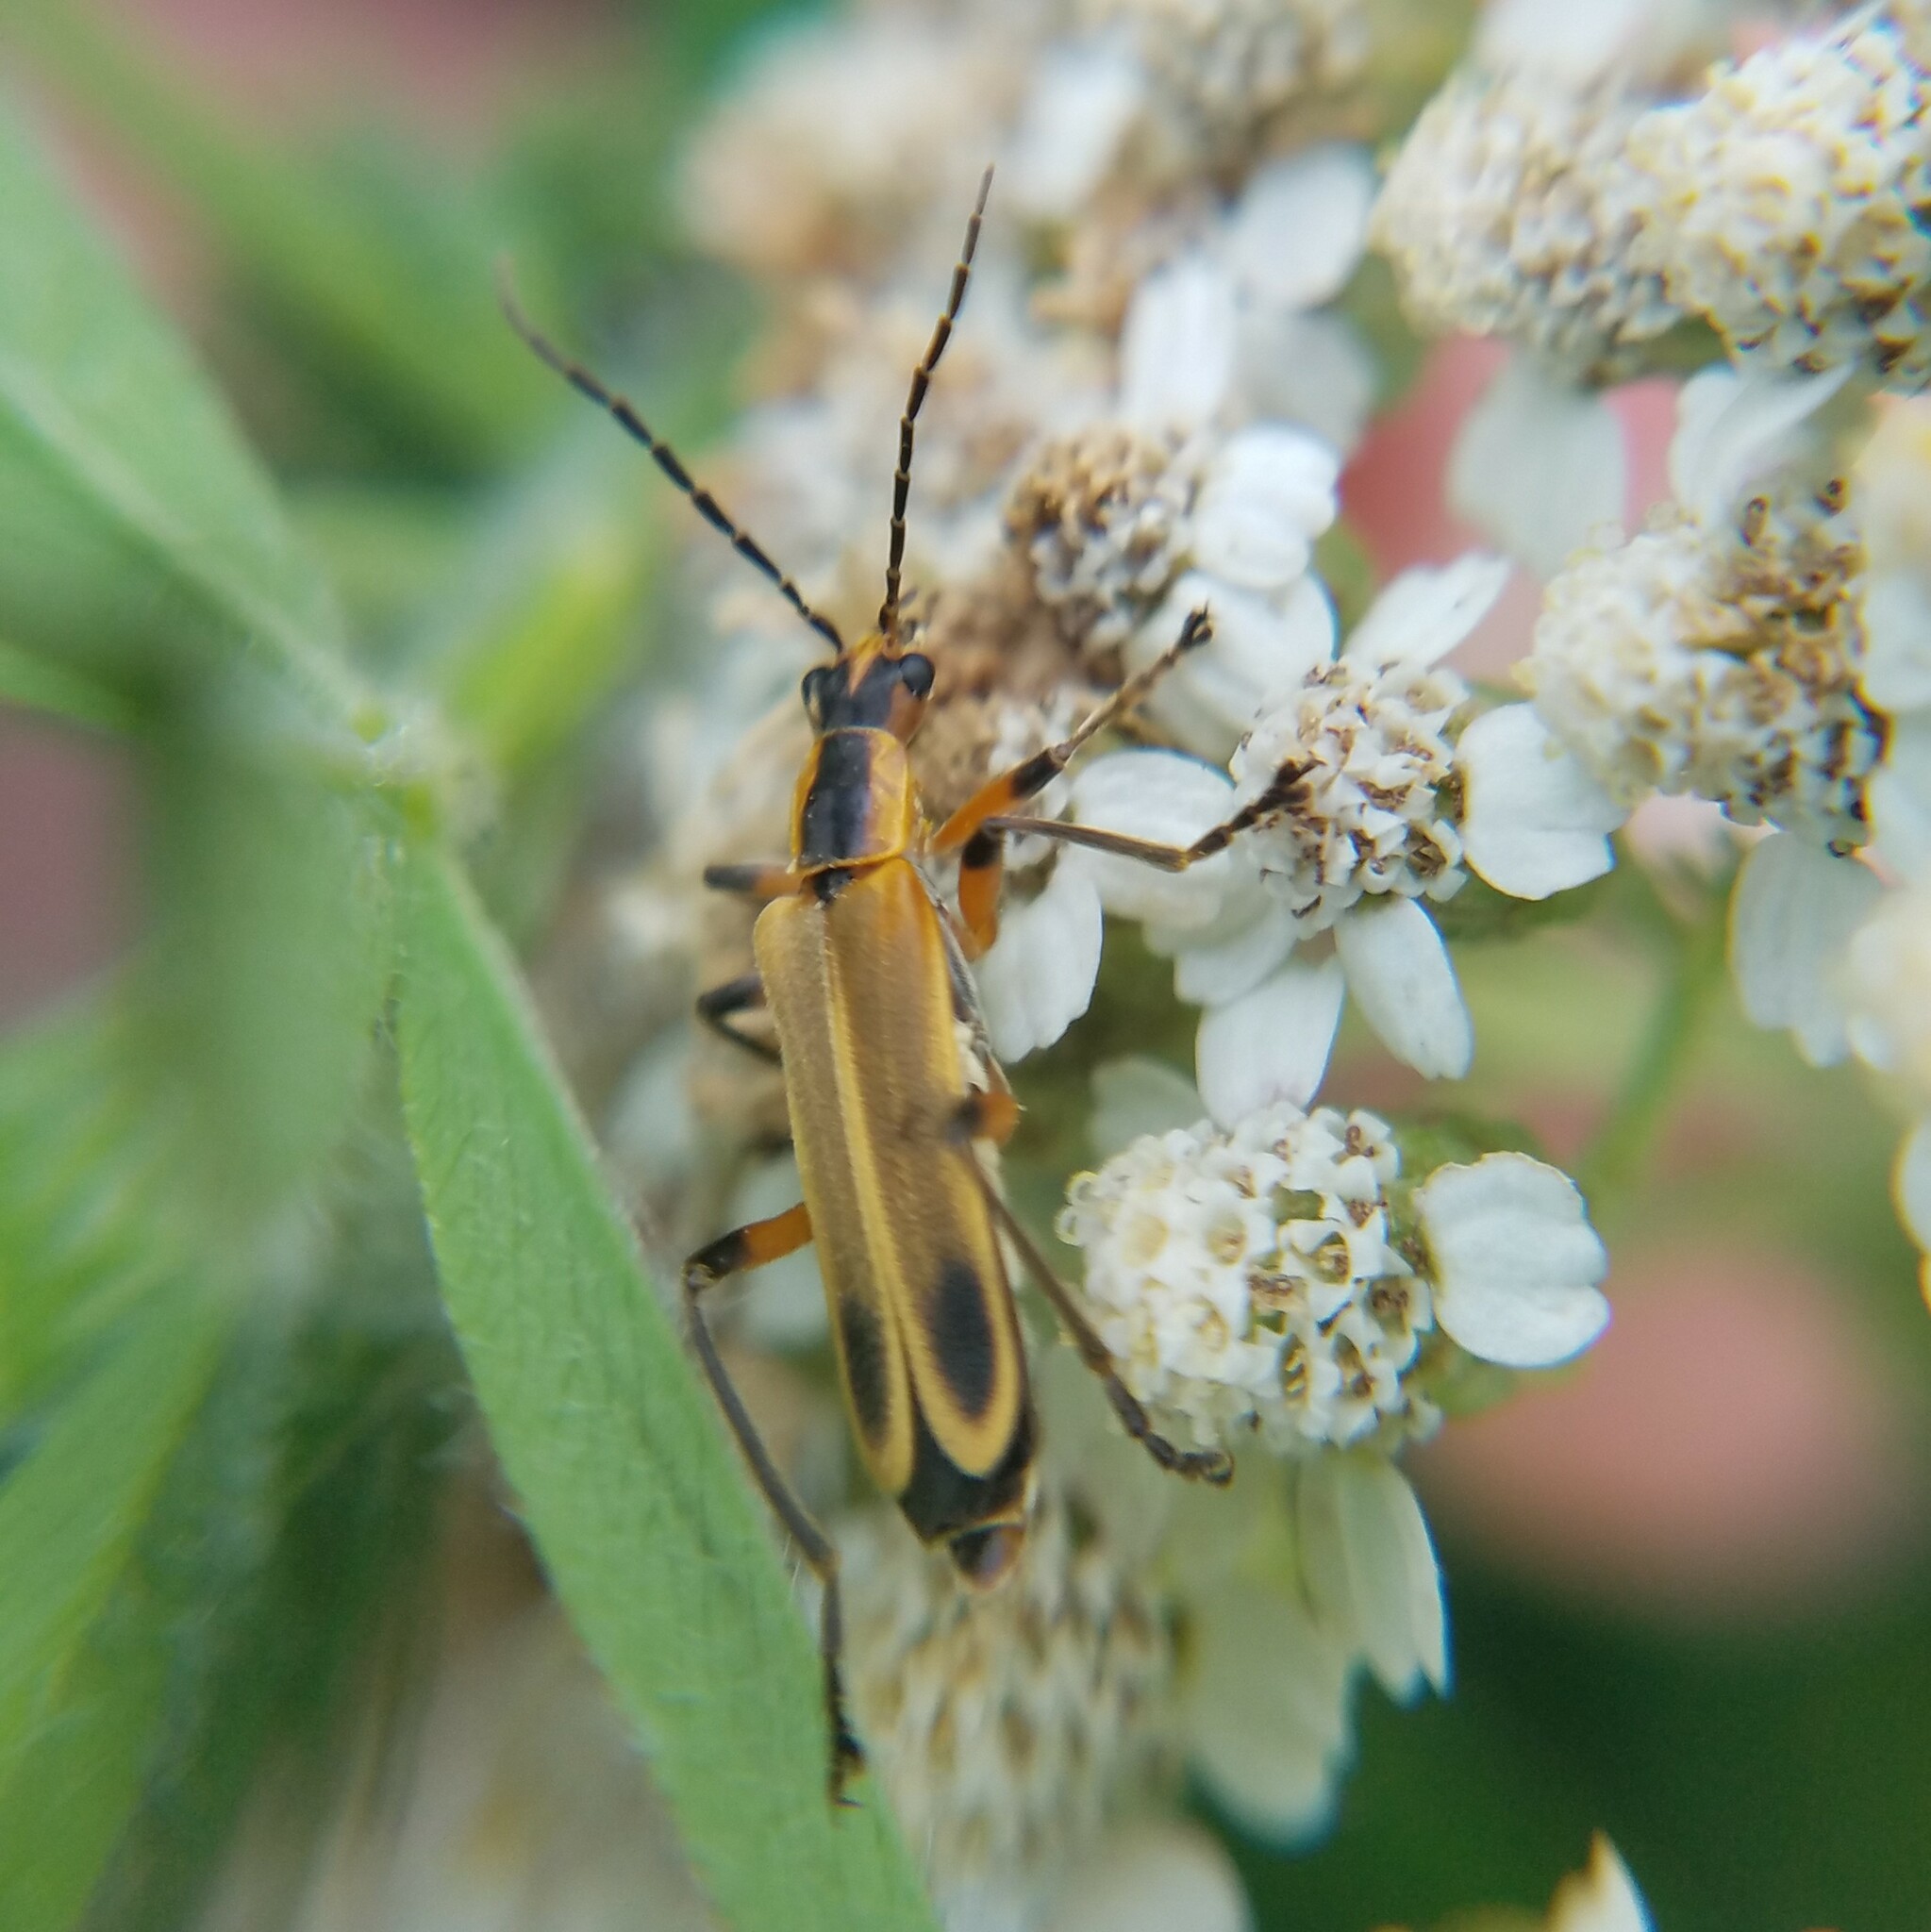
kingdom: Animalia
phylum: Arthropoda
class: Insecta
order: Coleoptera
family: Cantharidae
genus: Chauliognathus
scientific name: Chauliognathus marginatus
